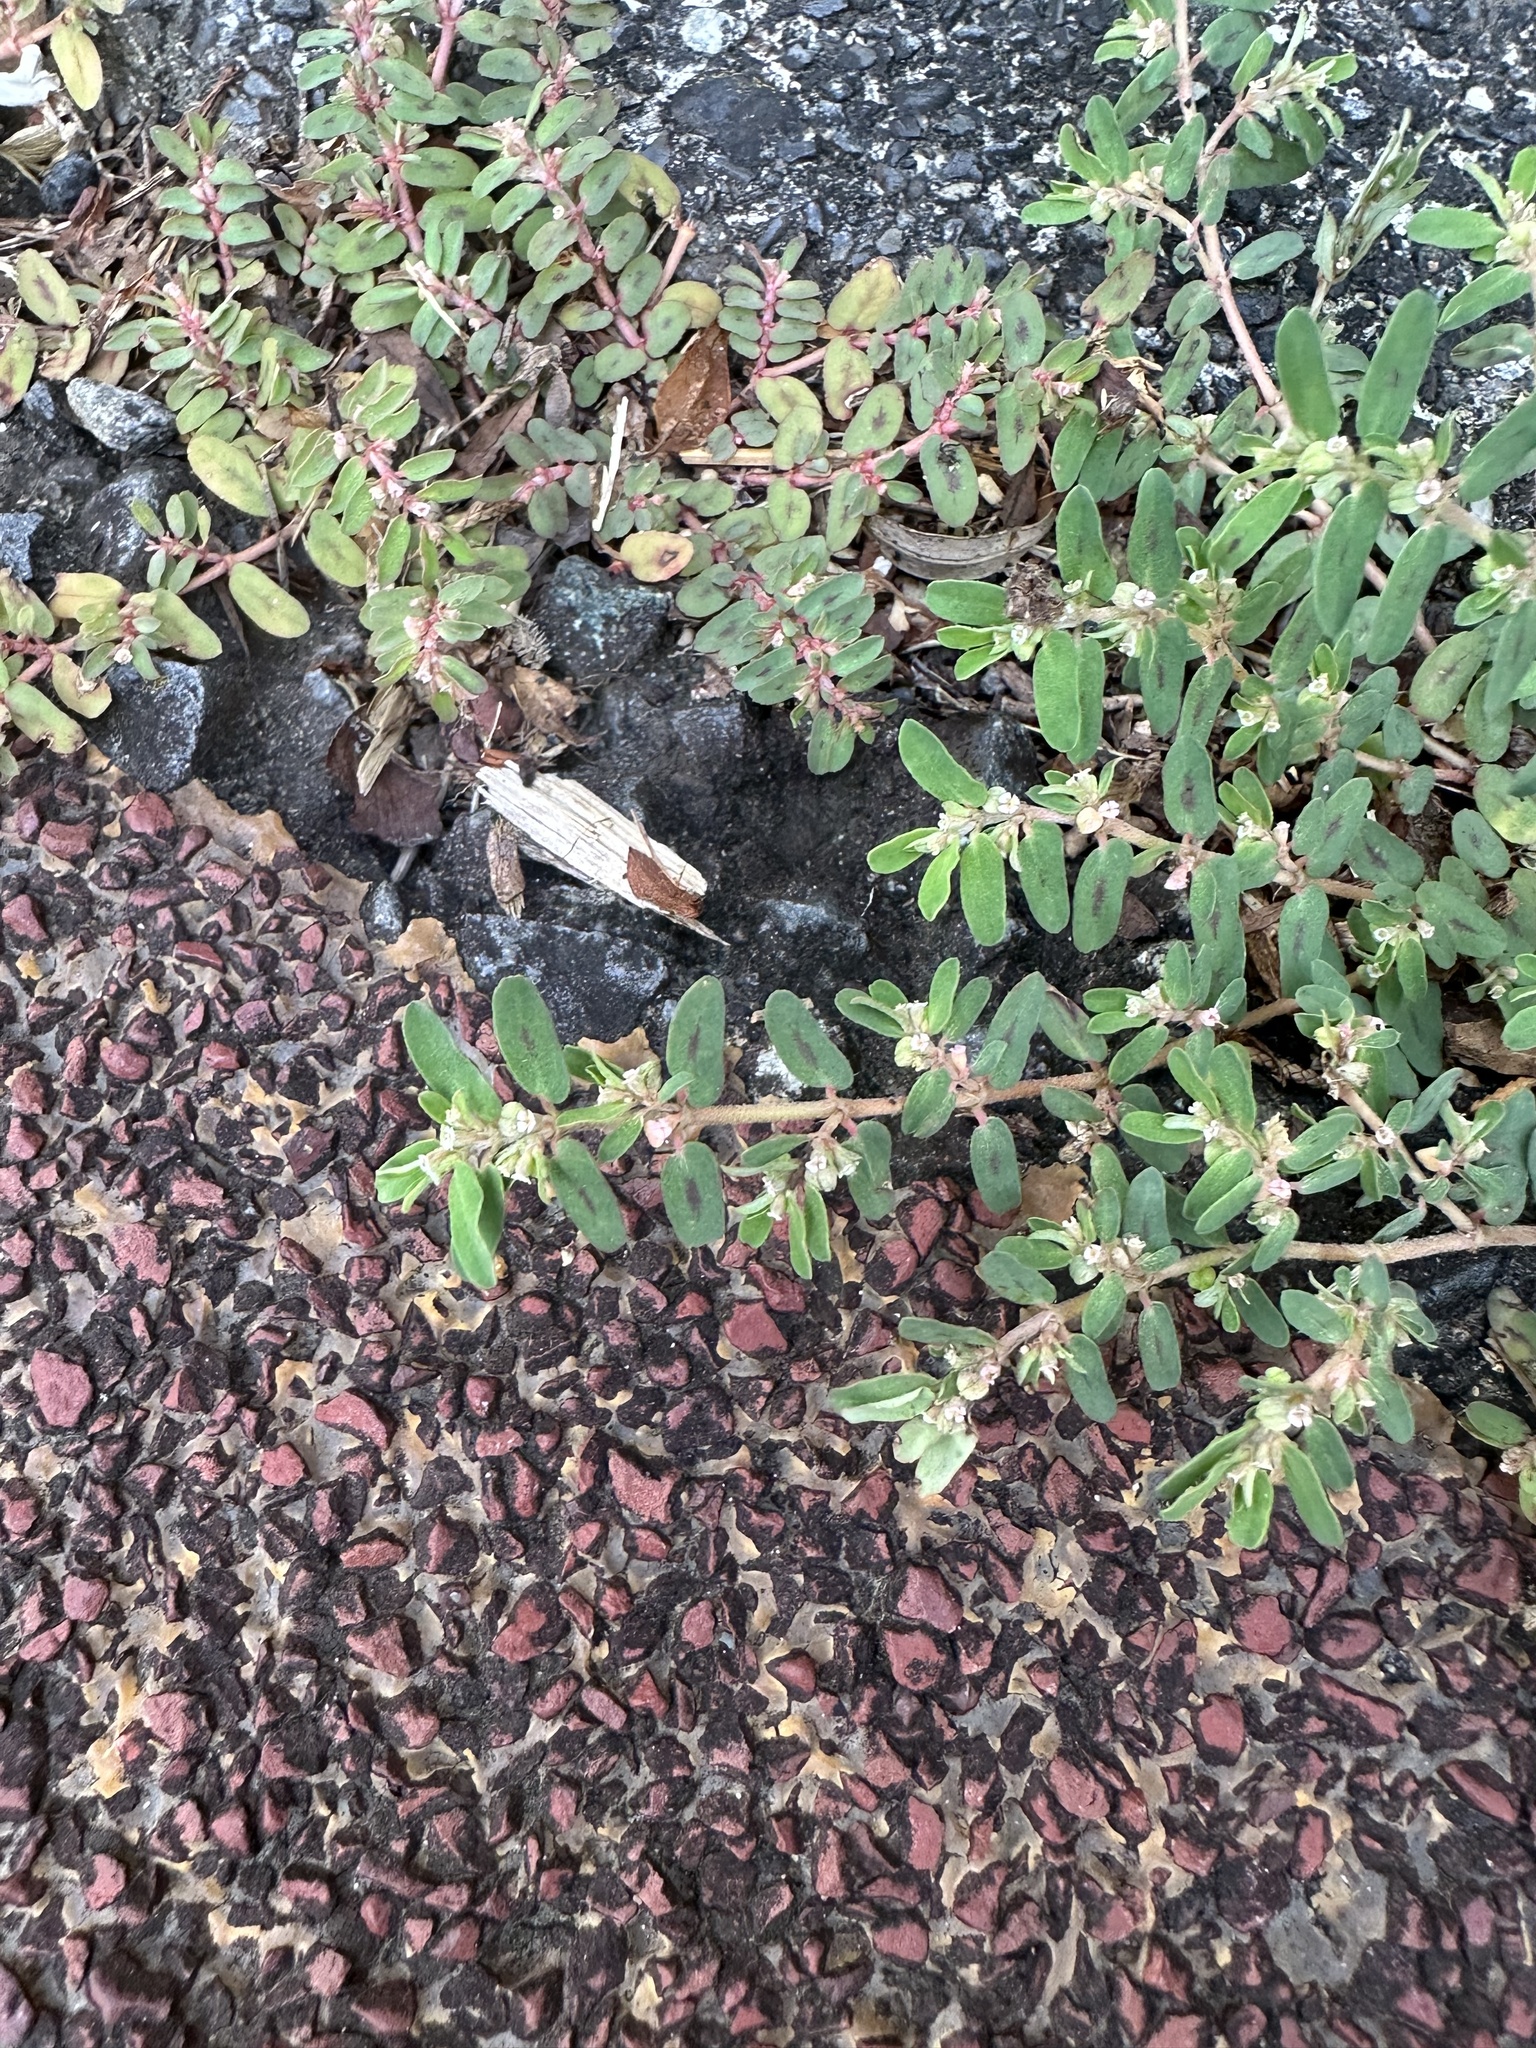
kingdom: Plantae
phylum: Tracheophyta
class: Magnoliopsida
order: Malpighiales
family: Euphorbiaceae
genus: Euphorbia
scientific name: Euphorbia maculata
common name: Spotted spurge
